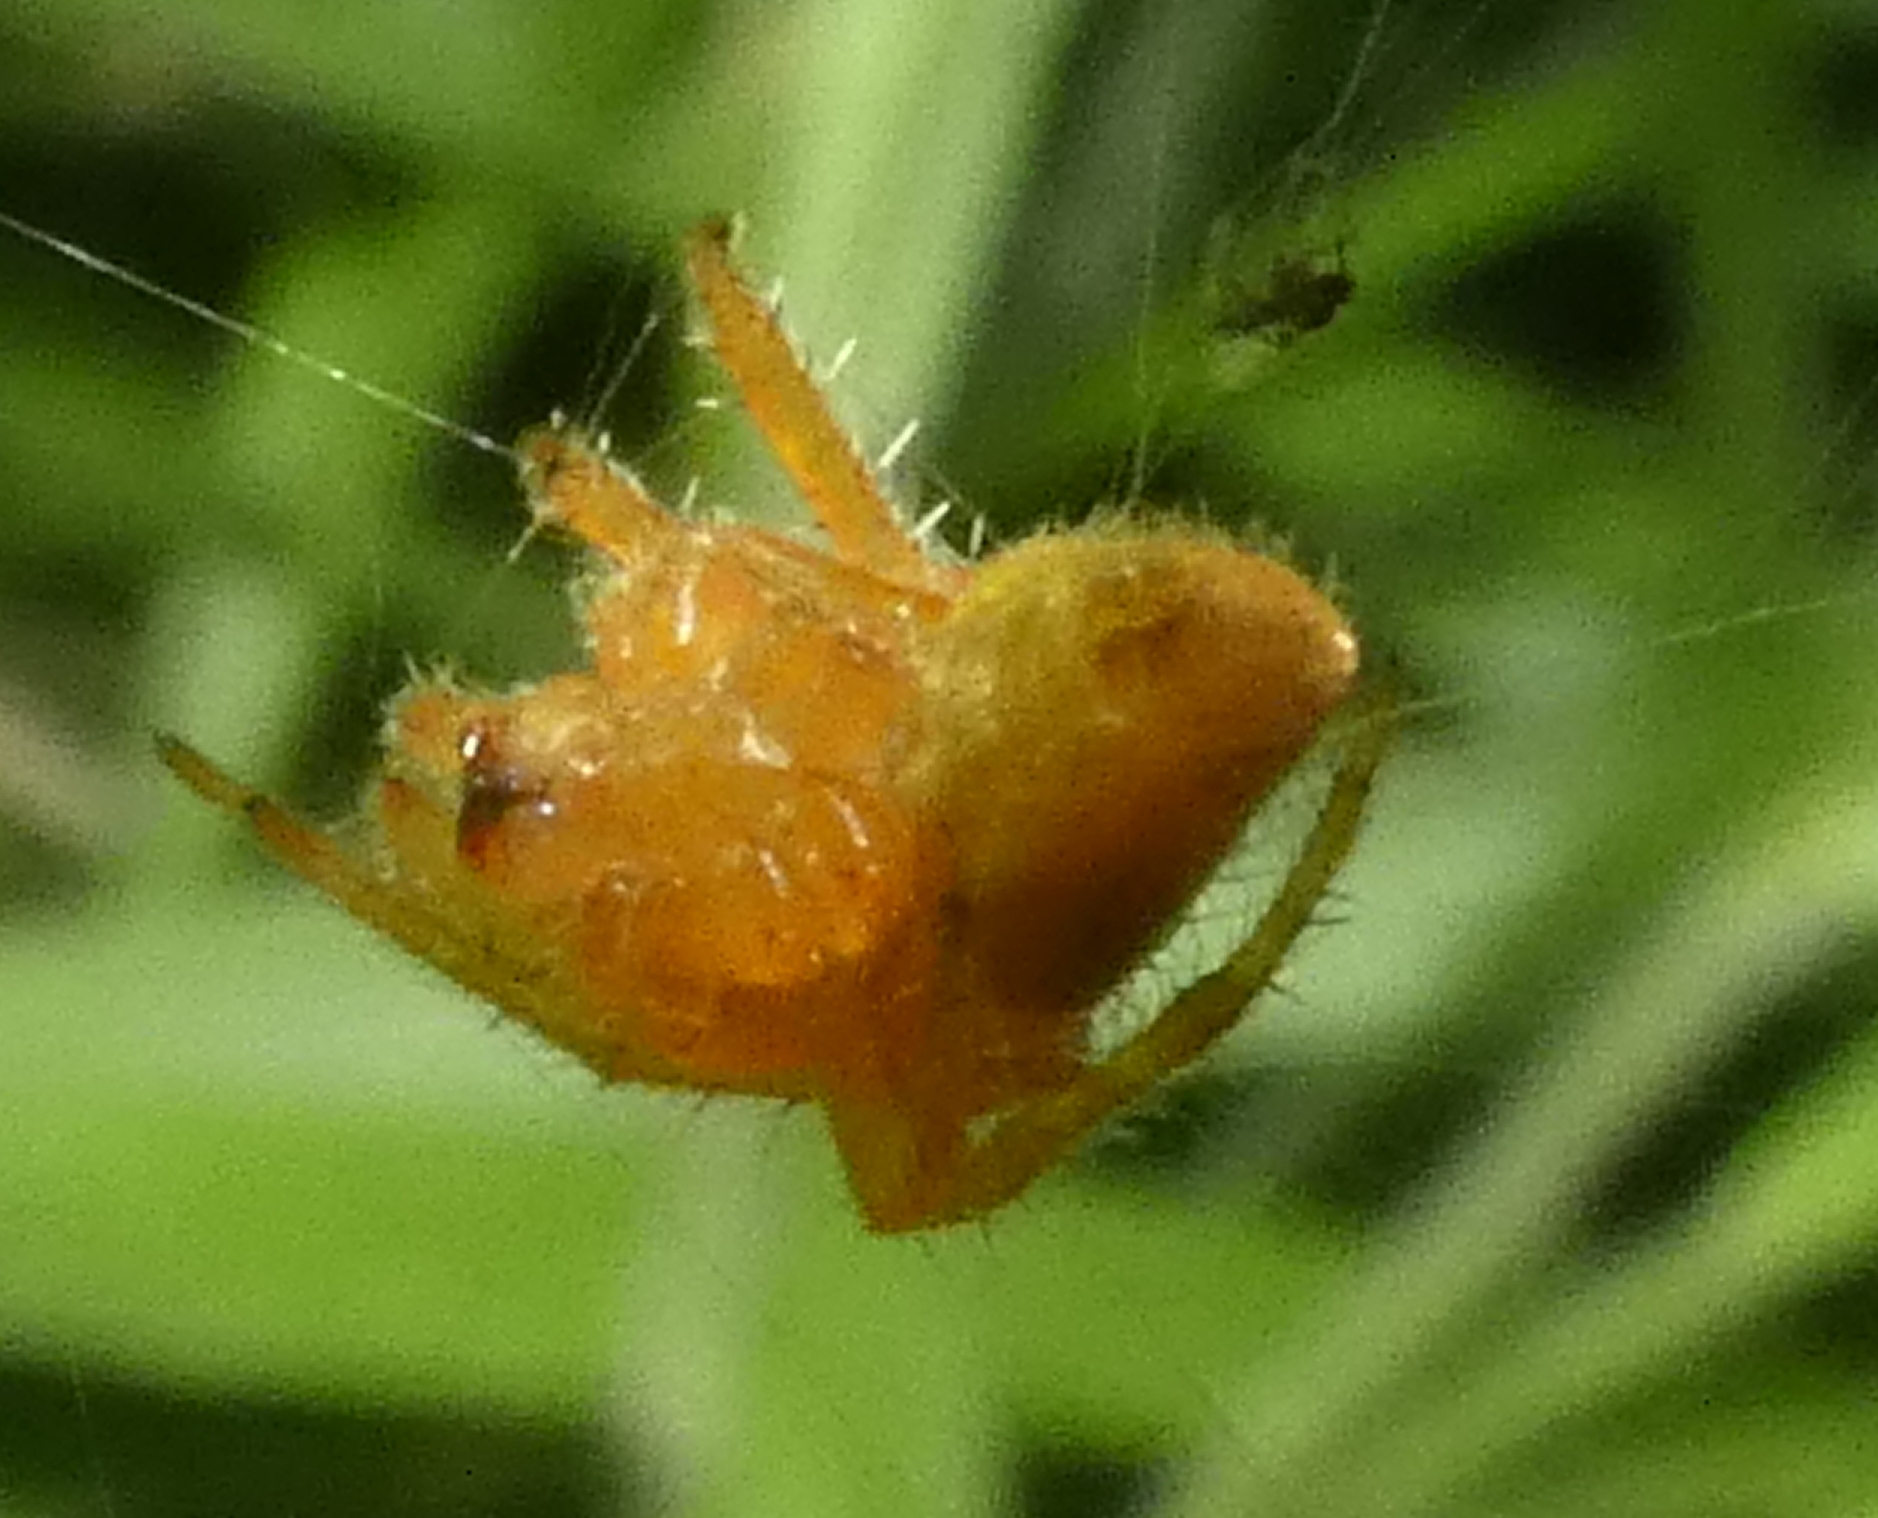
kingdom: Animalia
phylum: Arthropoda
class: Arachnida
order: Araneae
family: Araneidae
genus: Eriophora
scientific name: Eriophora edax
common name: Orb weavers
